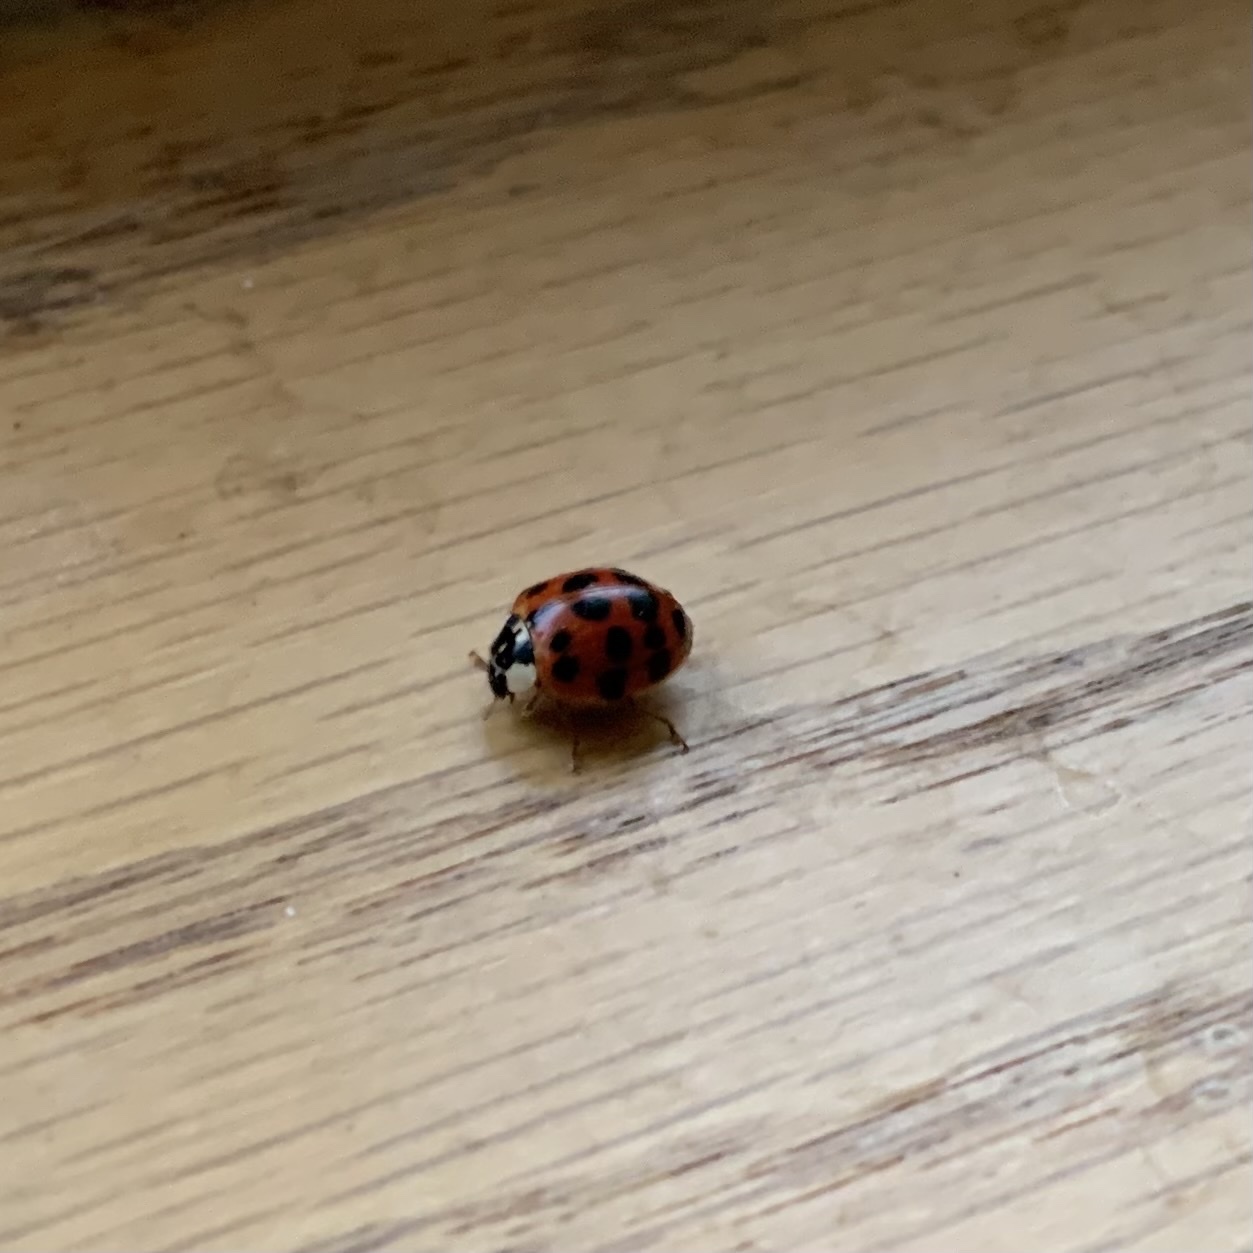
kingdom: Animalia
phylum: Arthropoda
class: Insecta
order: Coleoptera
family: Coccinellidae
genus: Harmonia
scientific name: Harmonia axyridis
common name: Harlequin ladybird
